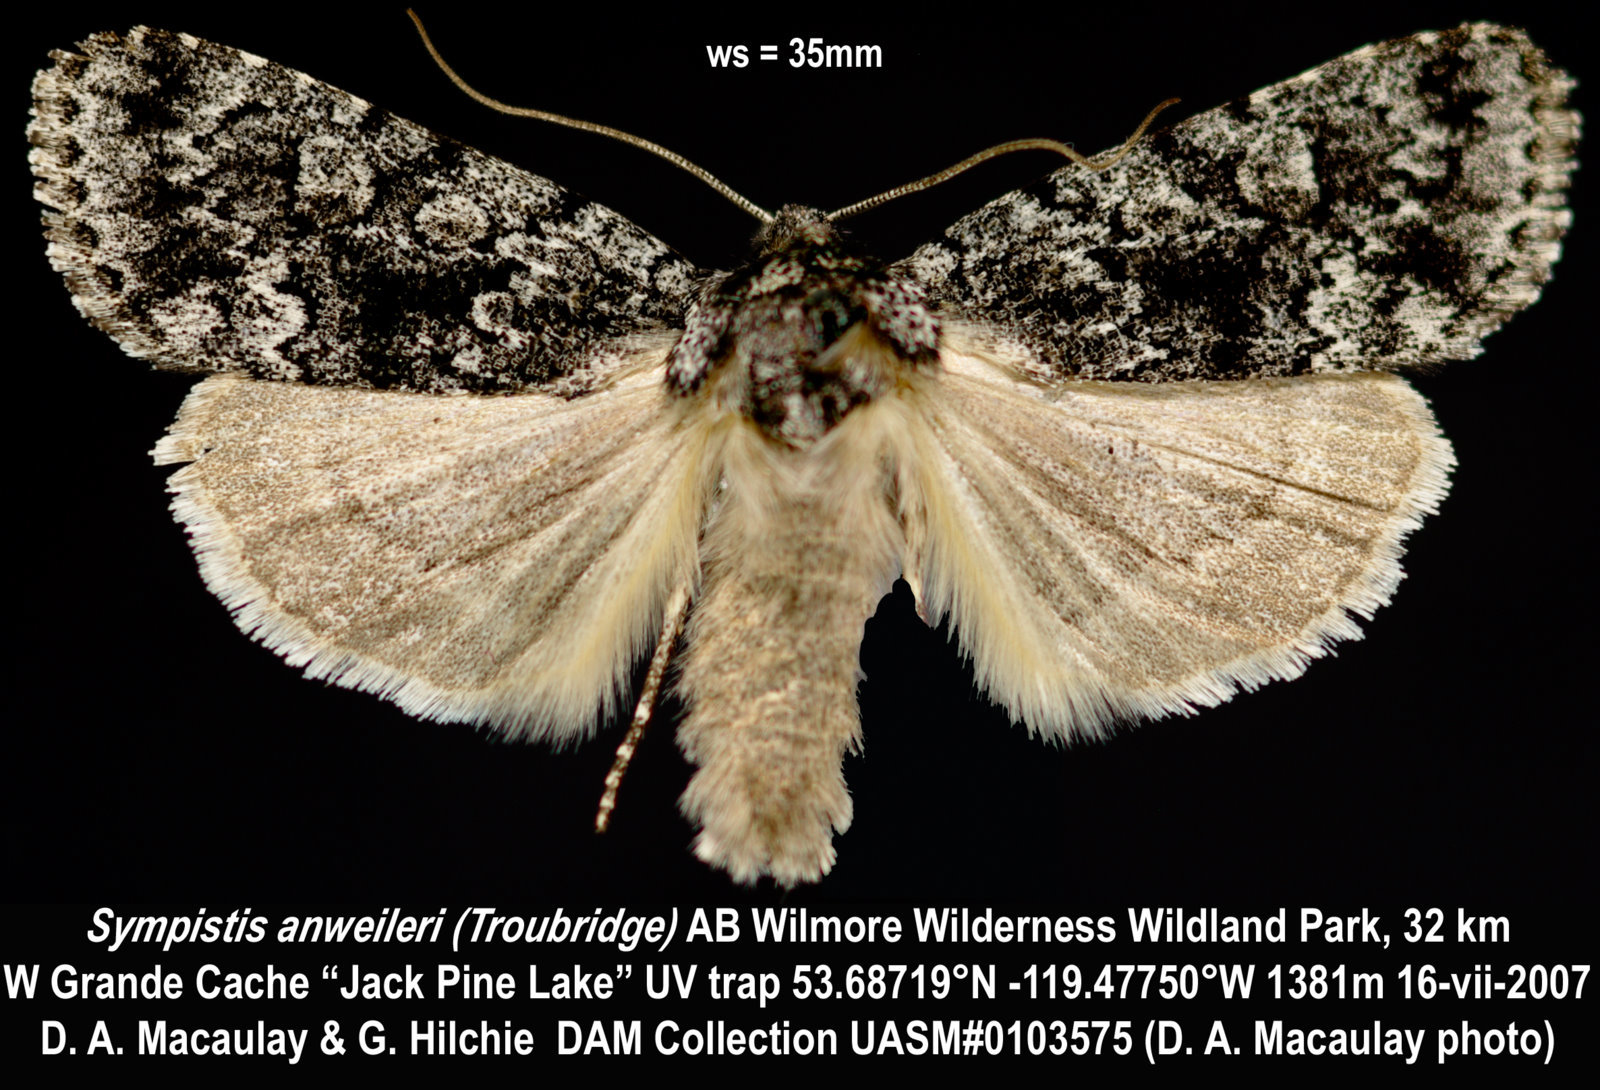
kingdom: Animalia
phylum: Arthropoda
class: Insecta
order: Lepidoptera
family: Noctuidae
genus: Sympistis
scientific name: Sympistis anweileri
